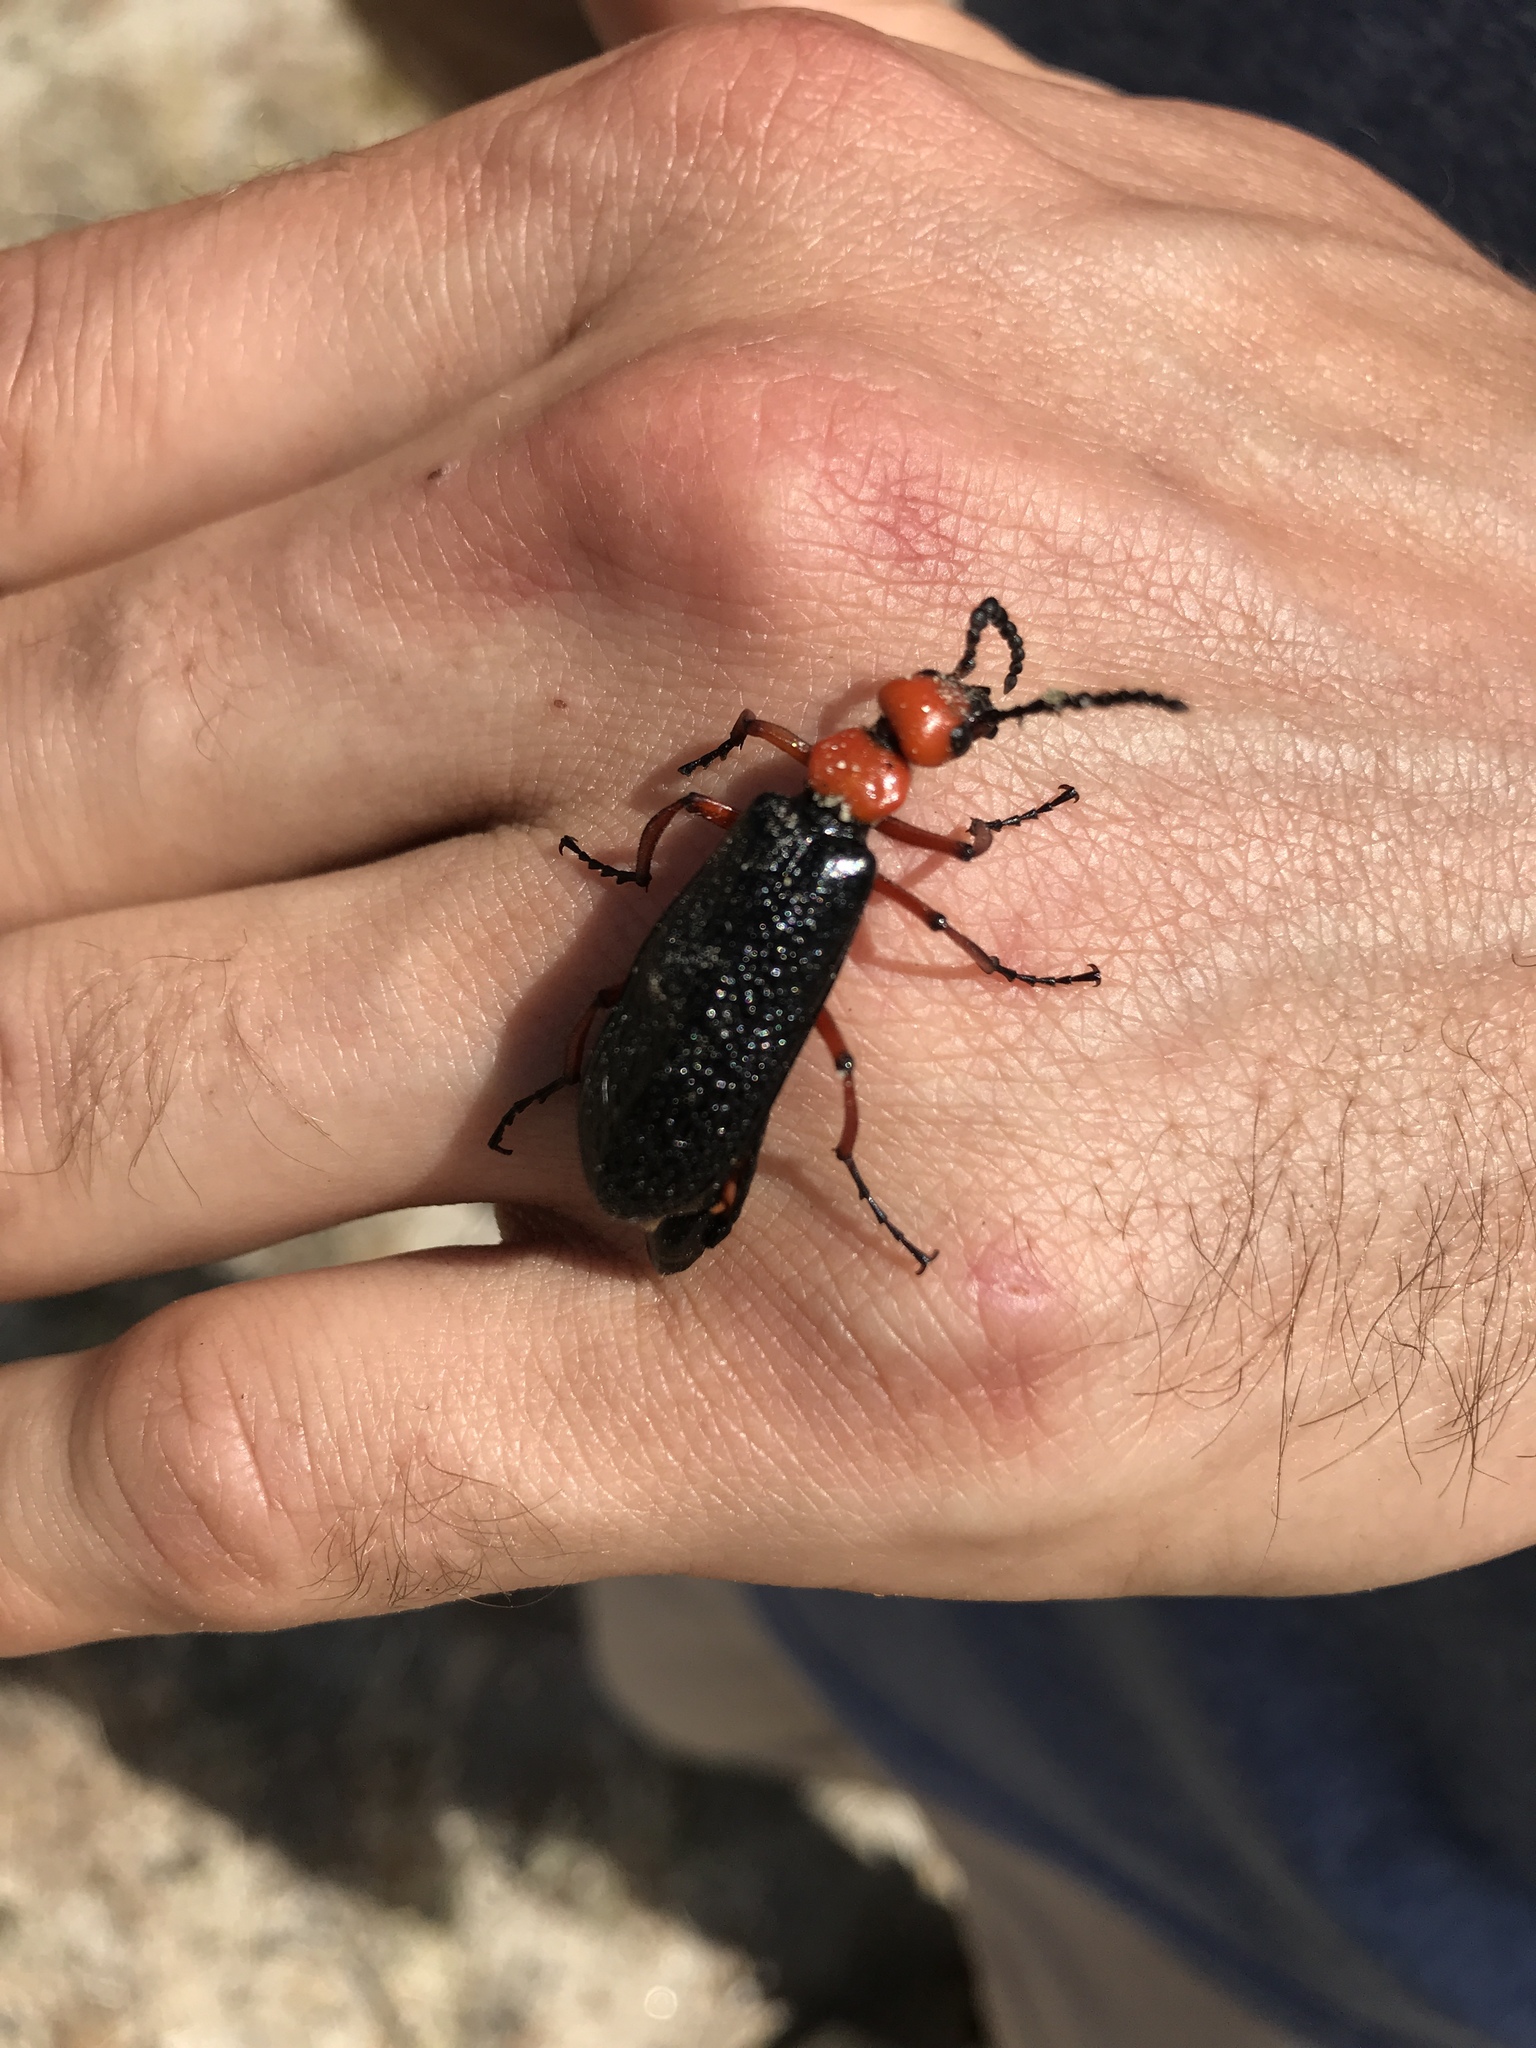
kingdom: Animalia
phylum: Arthropoda
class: Insecta
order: Coleoptera
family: Meloidae
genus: Lytta
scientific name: Lytta magister
